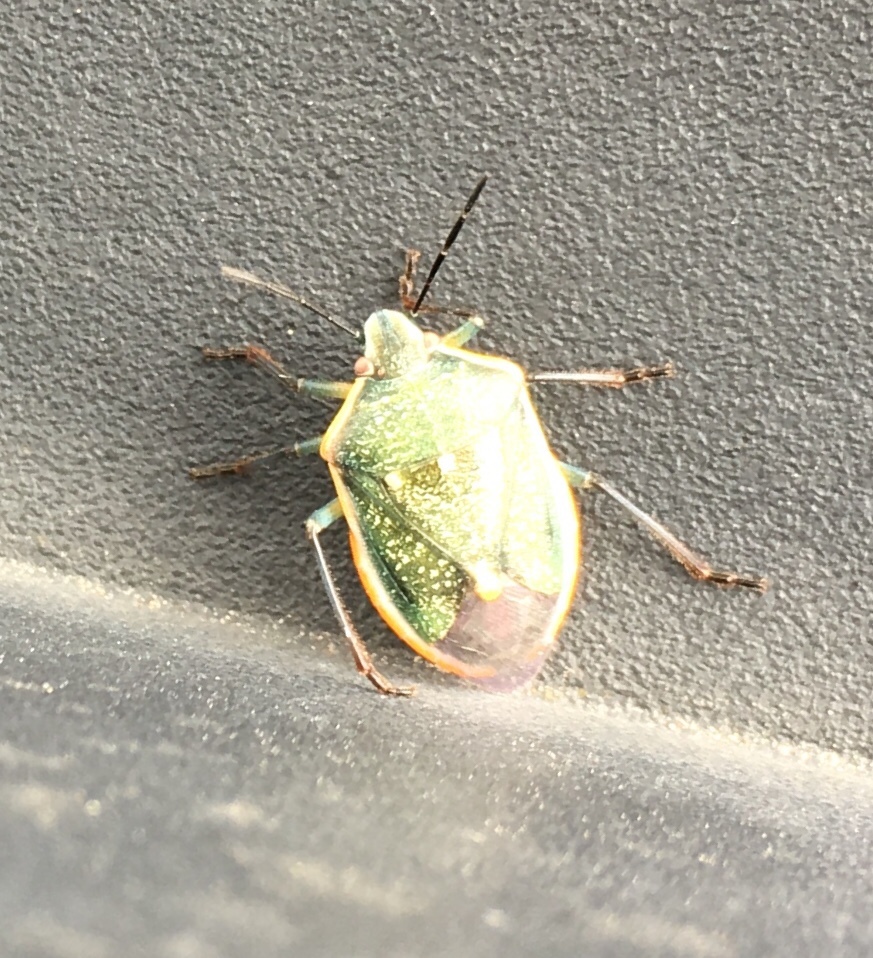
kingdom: Animalia
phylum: Arthropoda
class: Insecta
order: Hemiptera
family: Pentatomidae
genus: Chlorochroa
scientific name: Chlorochroa sayi
